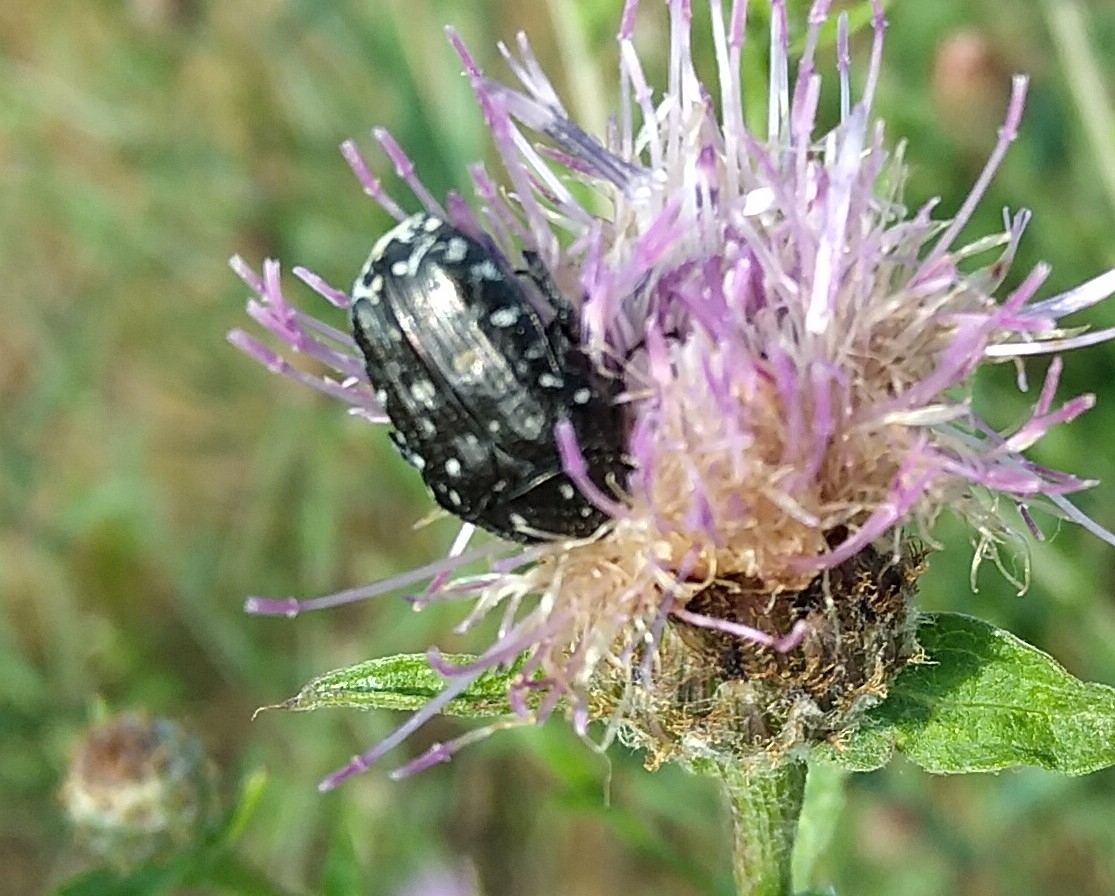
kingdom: Animalia
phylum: Arthropoda
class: Insecta
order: Coleoptera
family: Scarabaeidae
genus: Oxythyrea
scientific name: Oxythyrea funesta
